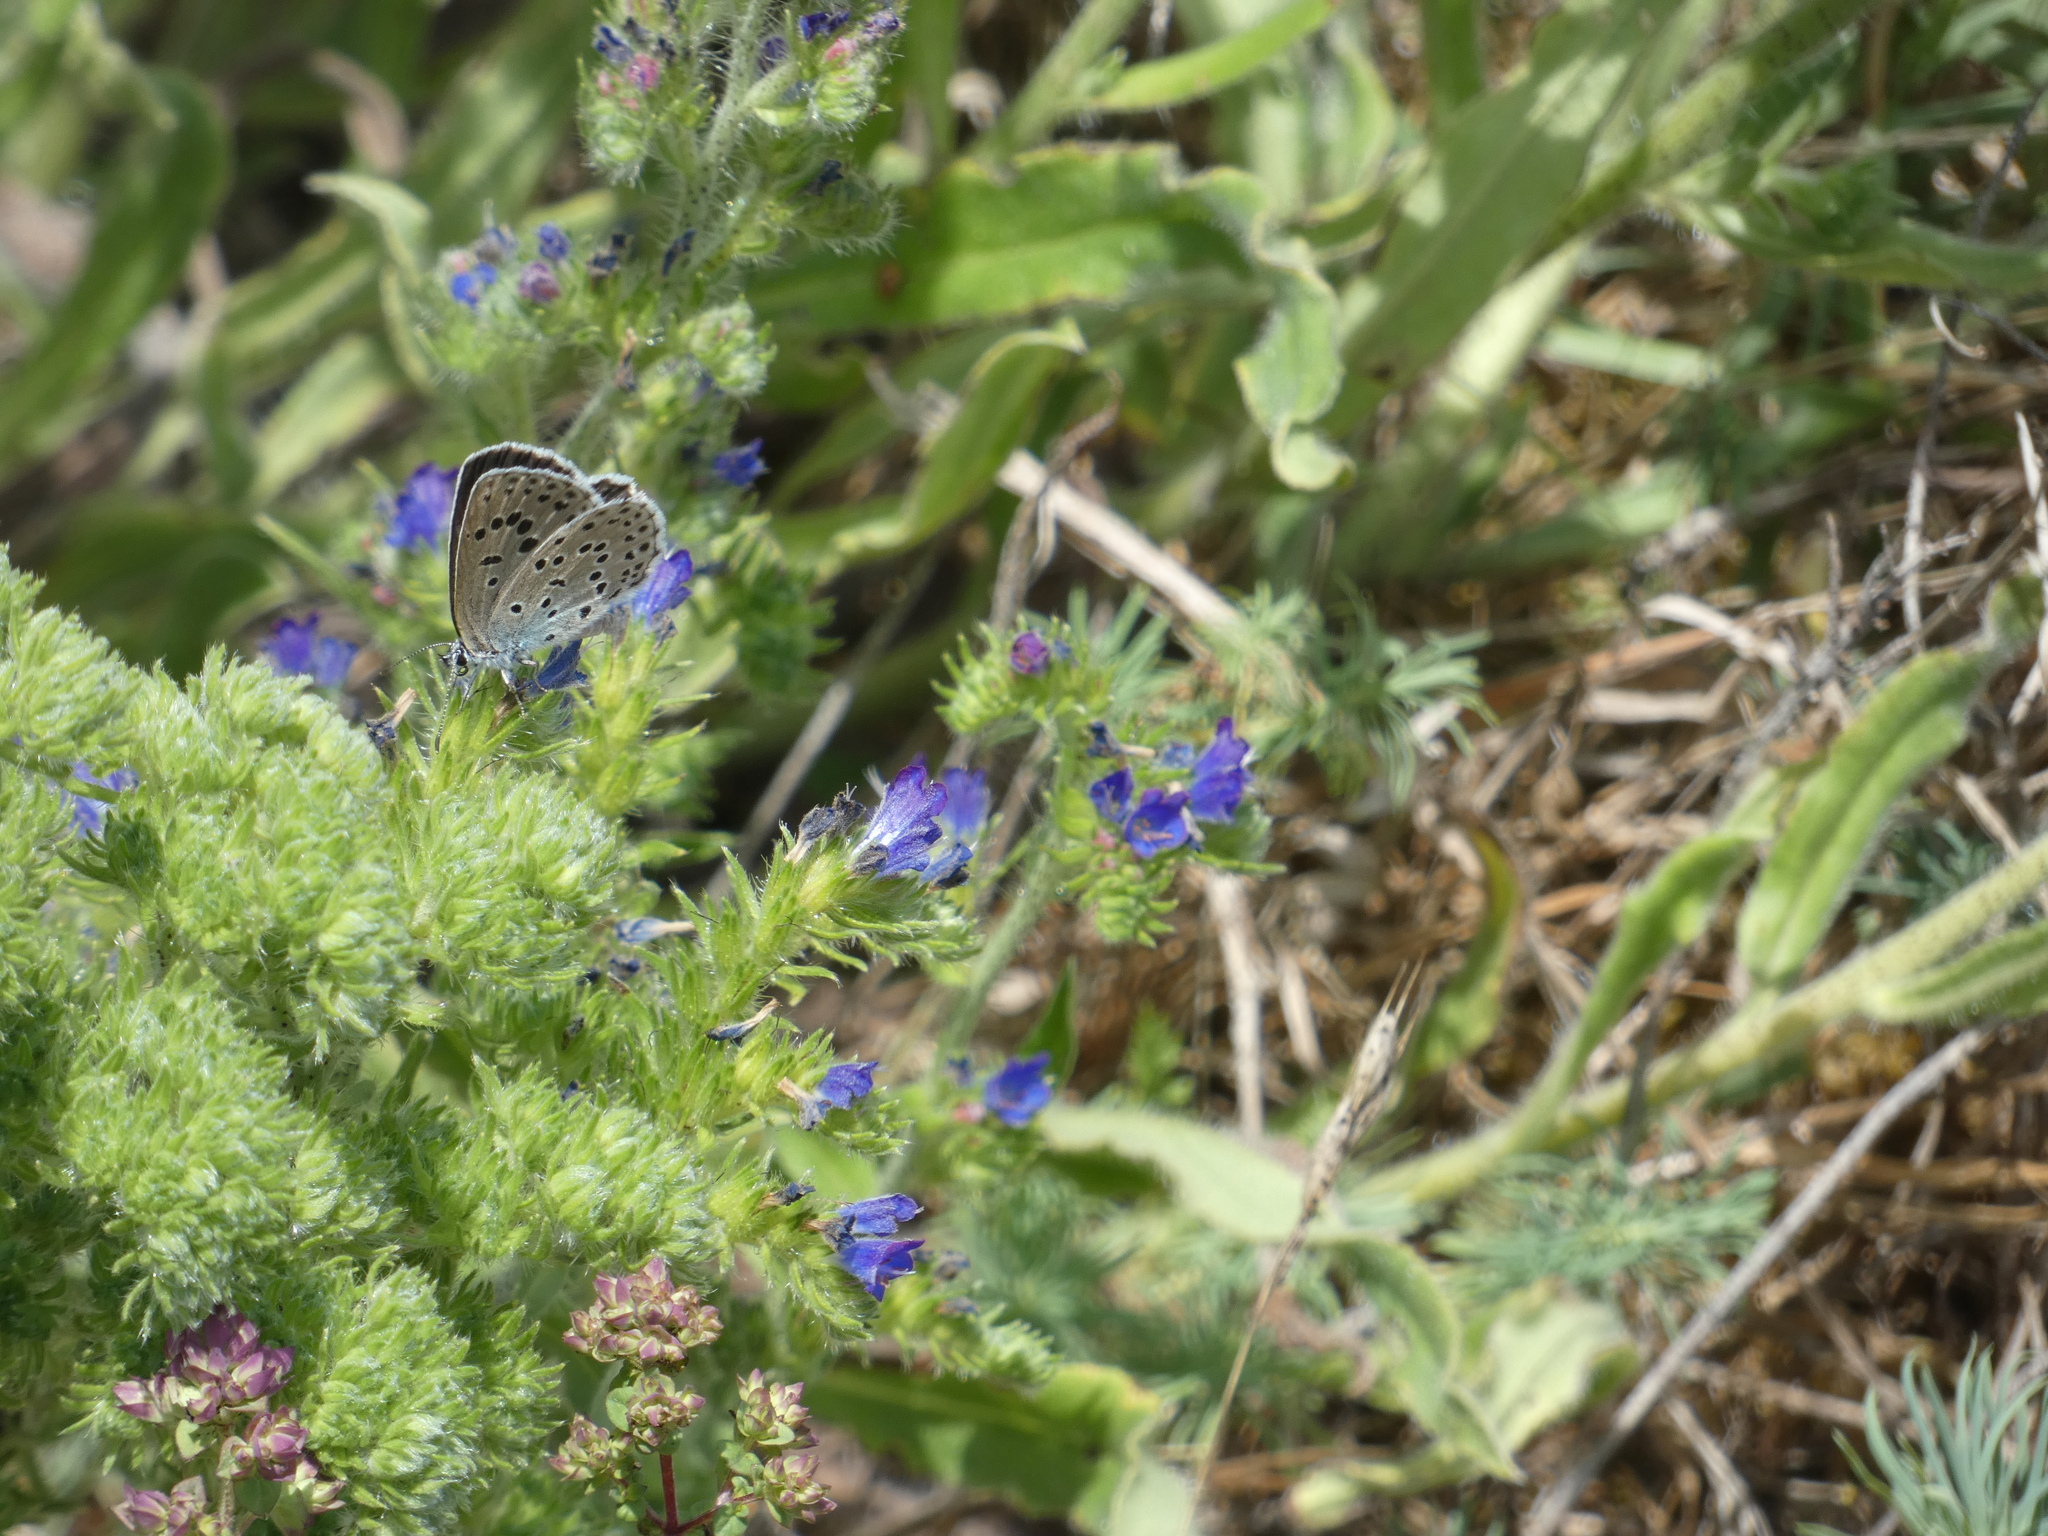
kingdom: Animalia
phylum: Arthropoda
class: Insecta
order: Lepidoptera
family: Lycaenidae
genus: Maculinea
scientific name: Maculinea arion
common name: Large blue
